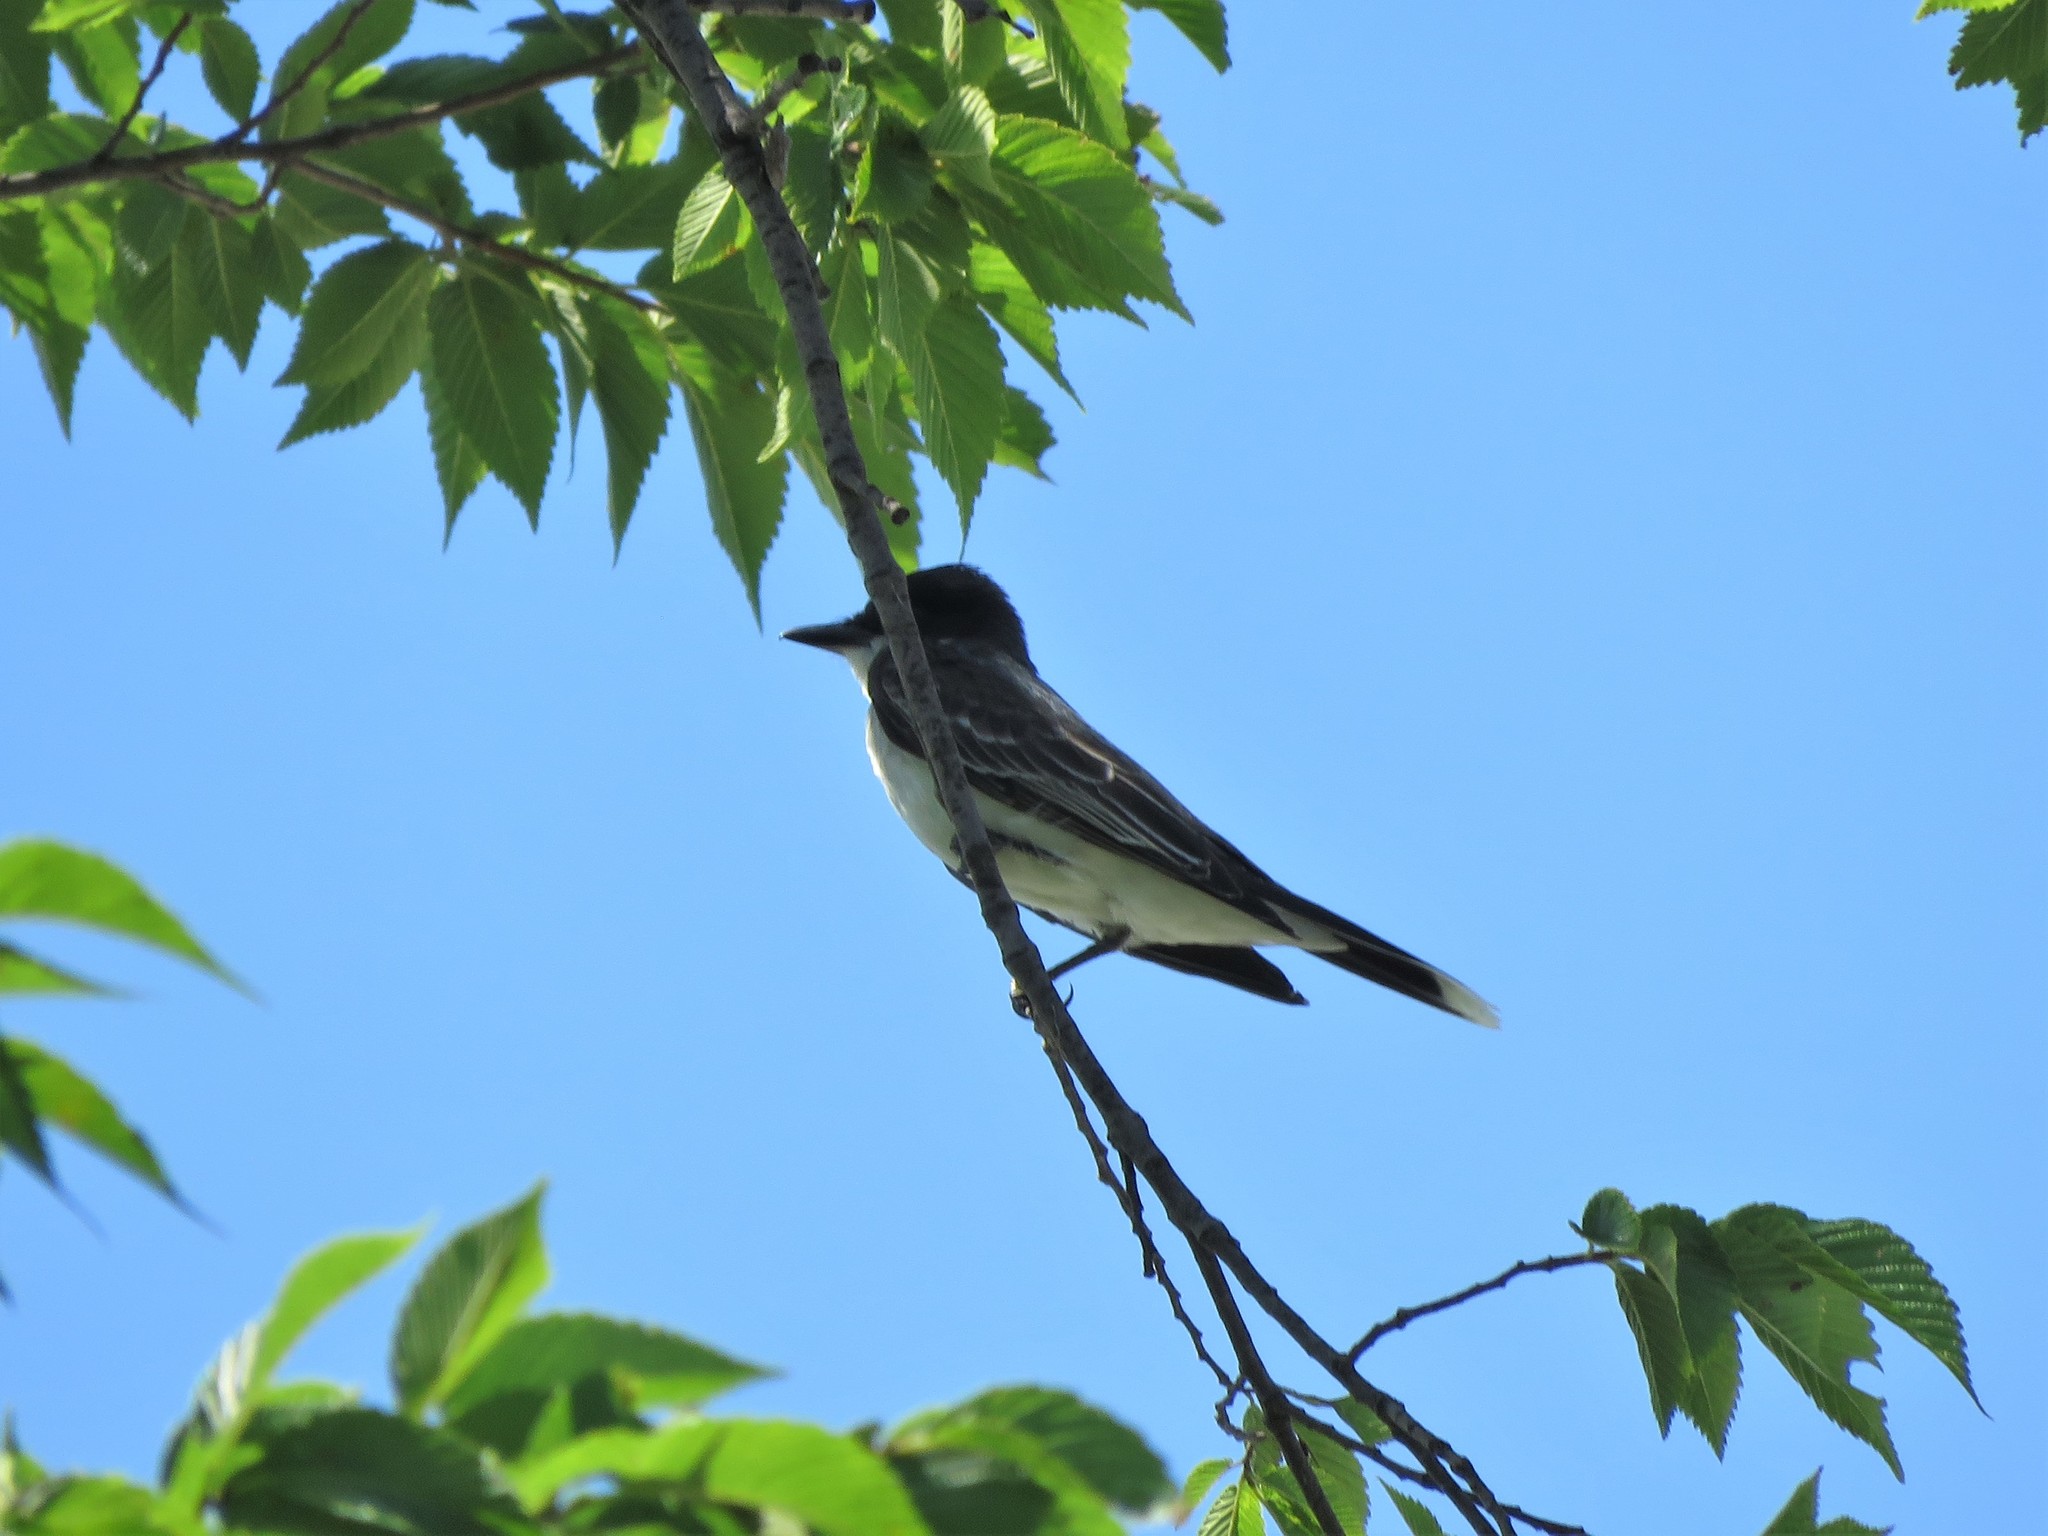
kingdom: Animalia
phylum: Chordata
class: Aves
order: Passeriformes
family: Tyrannidae
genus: Tyrannus
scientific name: Tyrannus tyrannus
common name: Eastern kingbird
